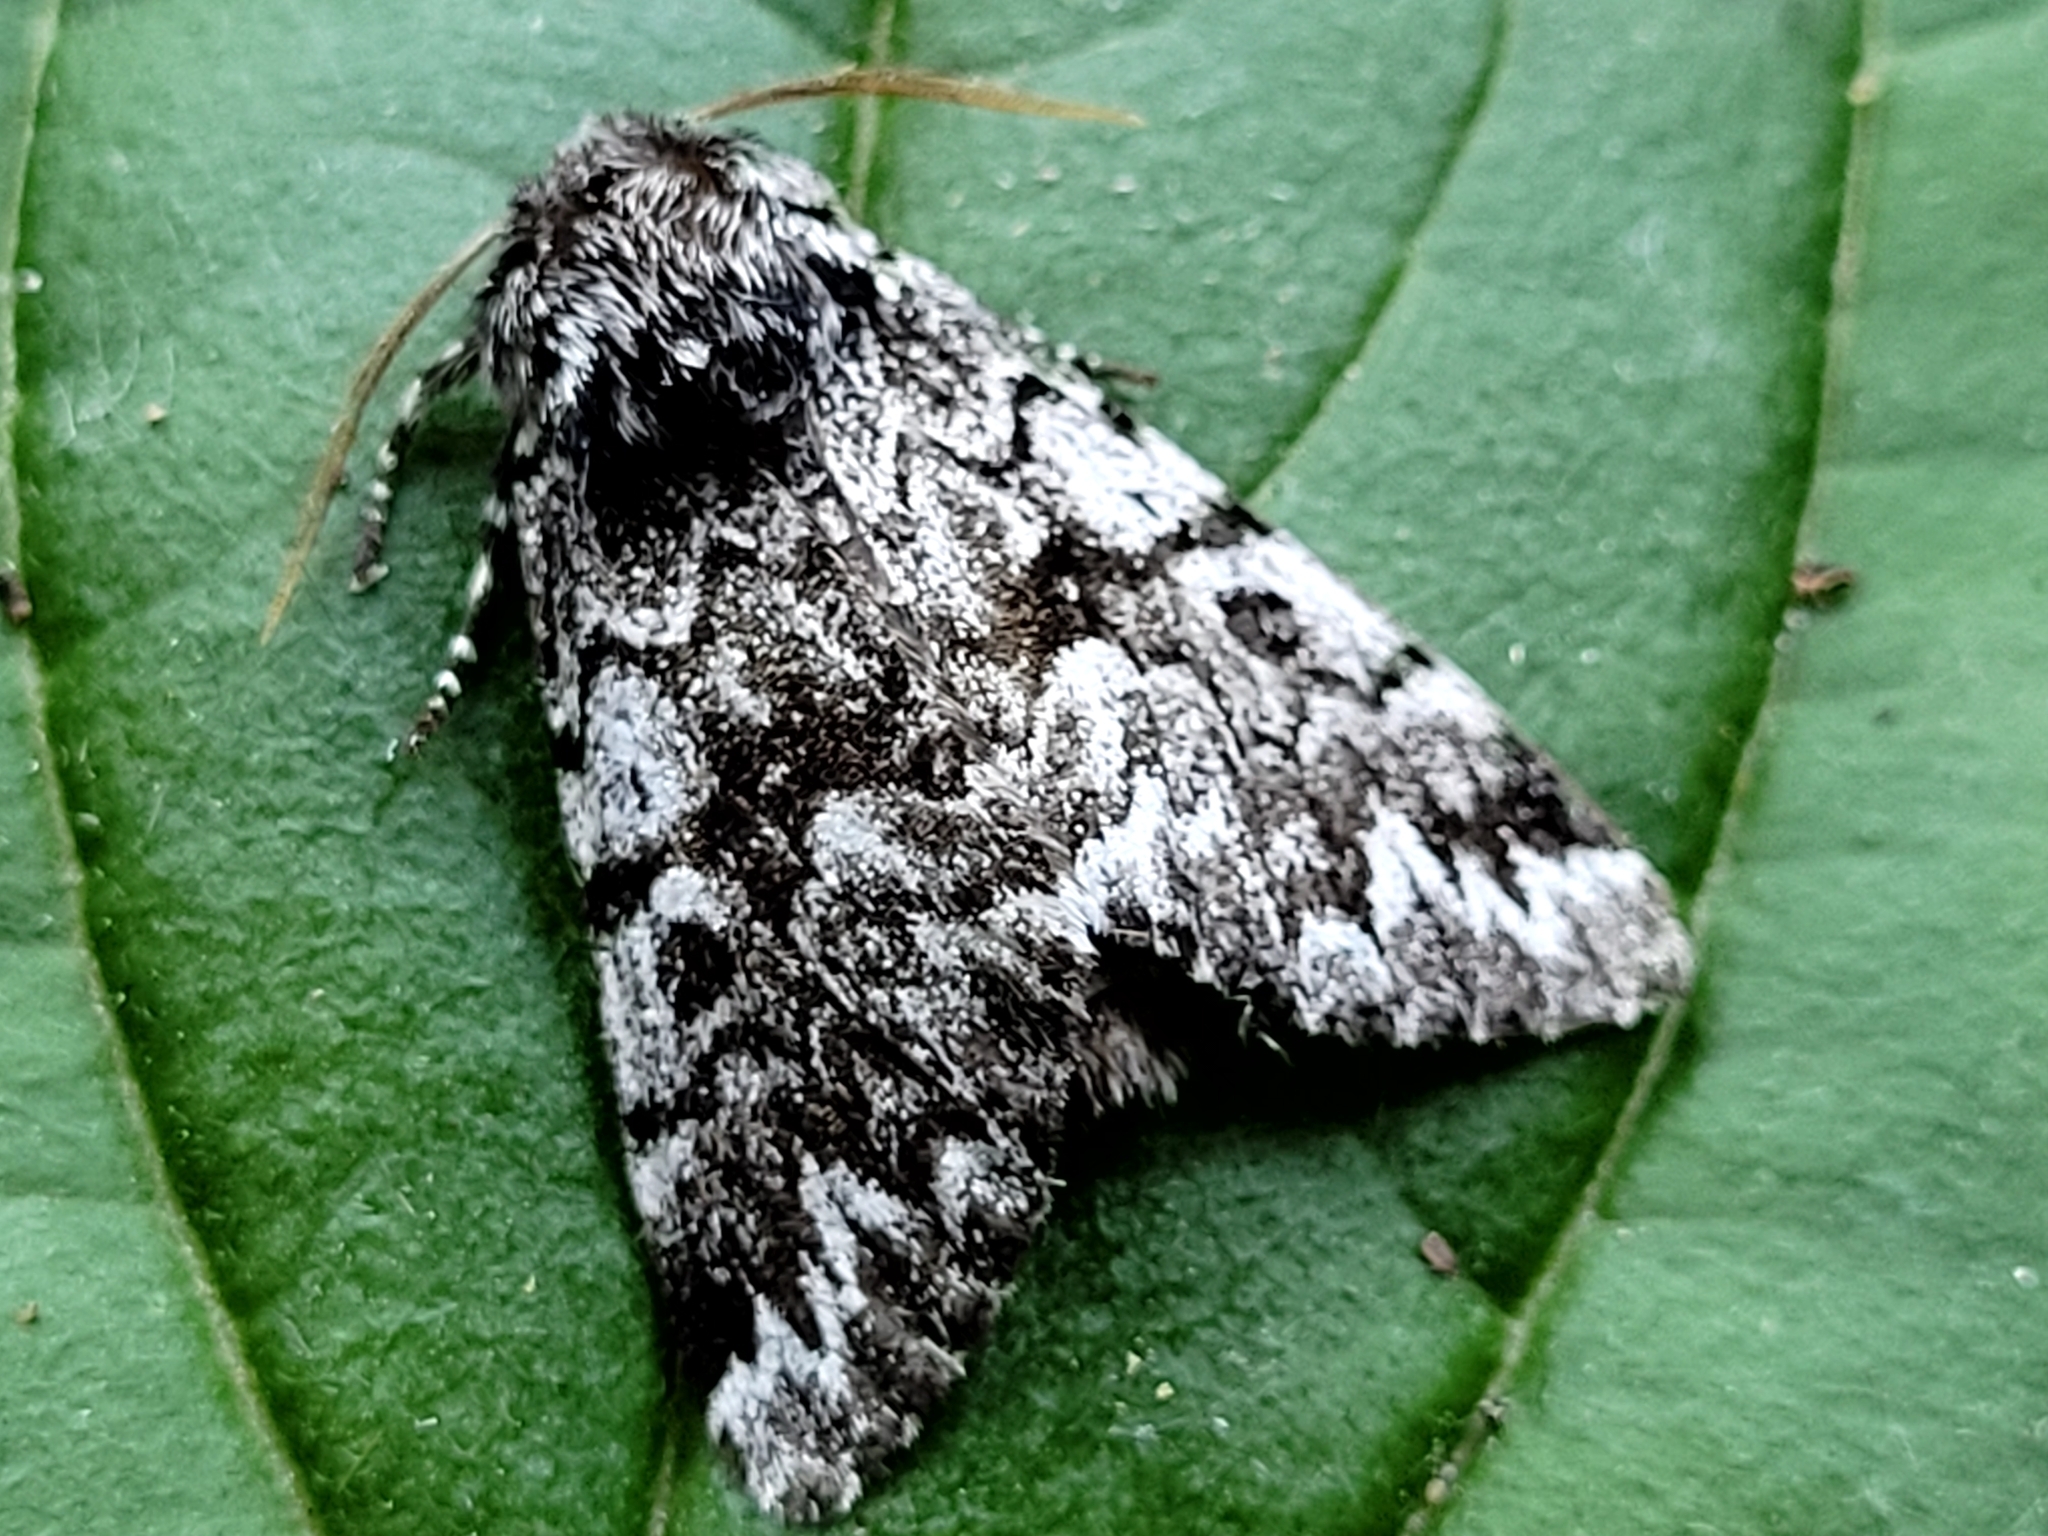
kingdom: Animalia
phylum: Arthropoda
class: Insecta
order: Lepidoptera
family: Noctuidae
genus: Panthea
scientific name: Panthea acronyctoides
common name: Black zigzag moth
